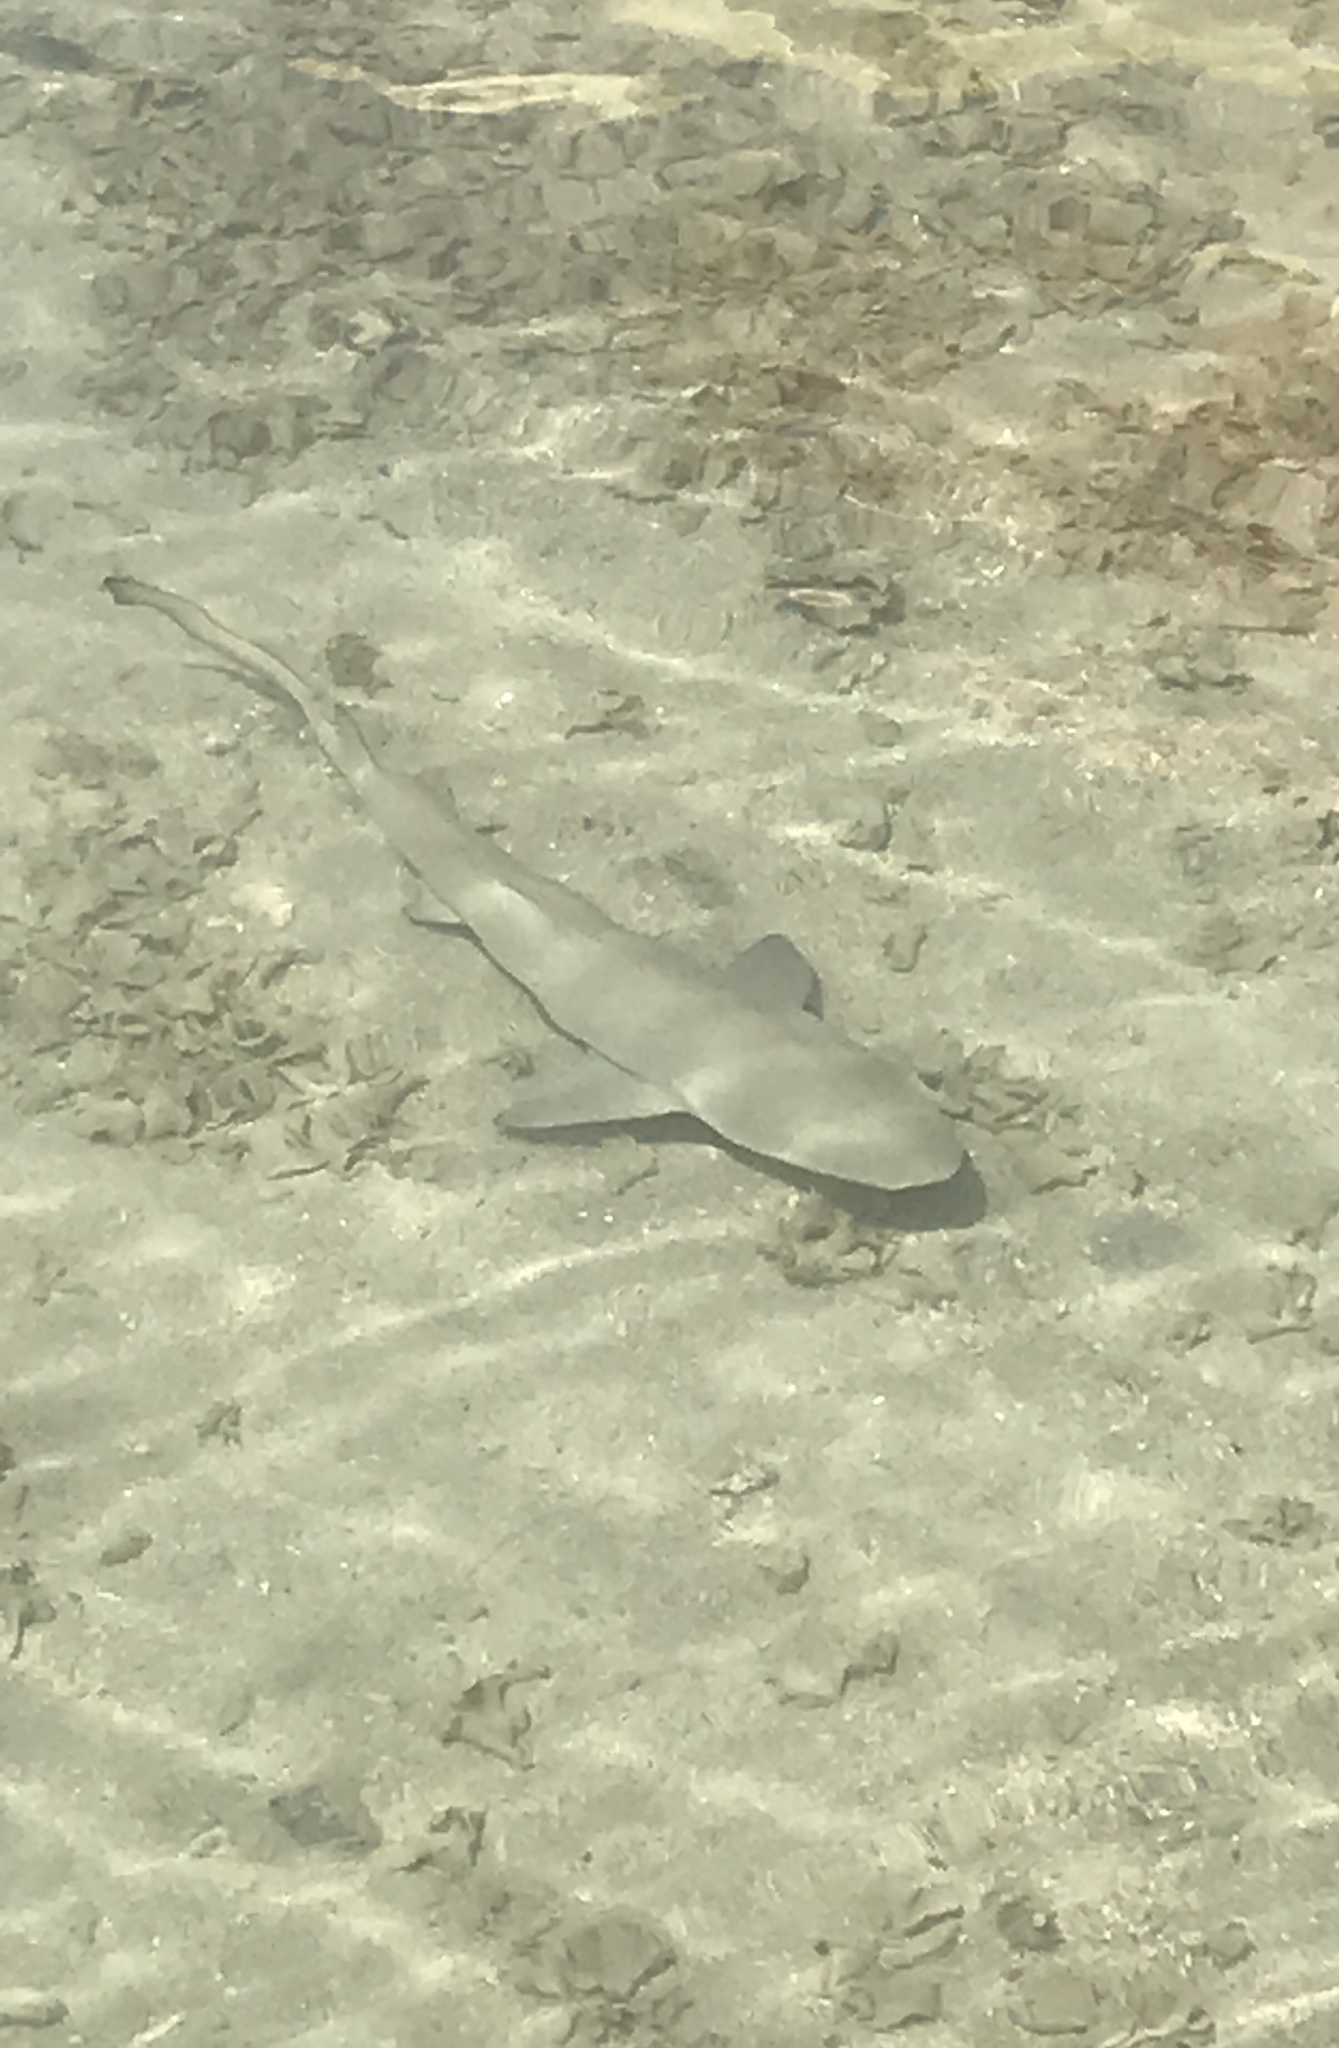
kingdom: Animalia
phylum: Chordata
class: Elasmobranchii
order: Carcharhiniformes
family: Carcharhinidae
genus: Negaprion
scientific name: Negaprion acutidens
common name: Lemon shark
